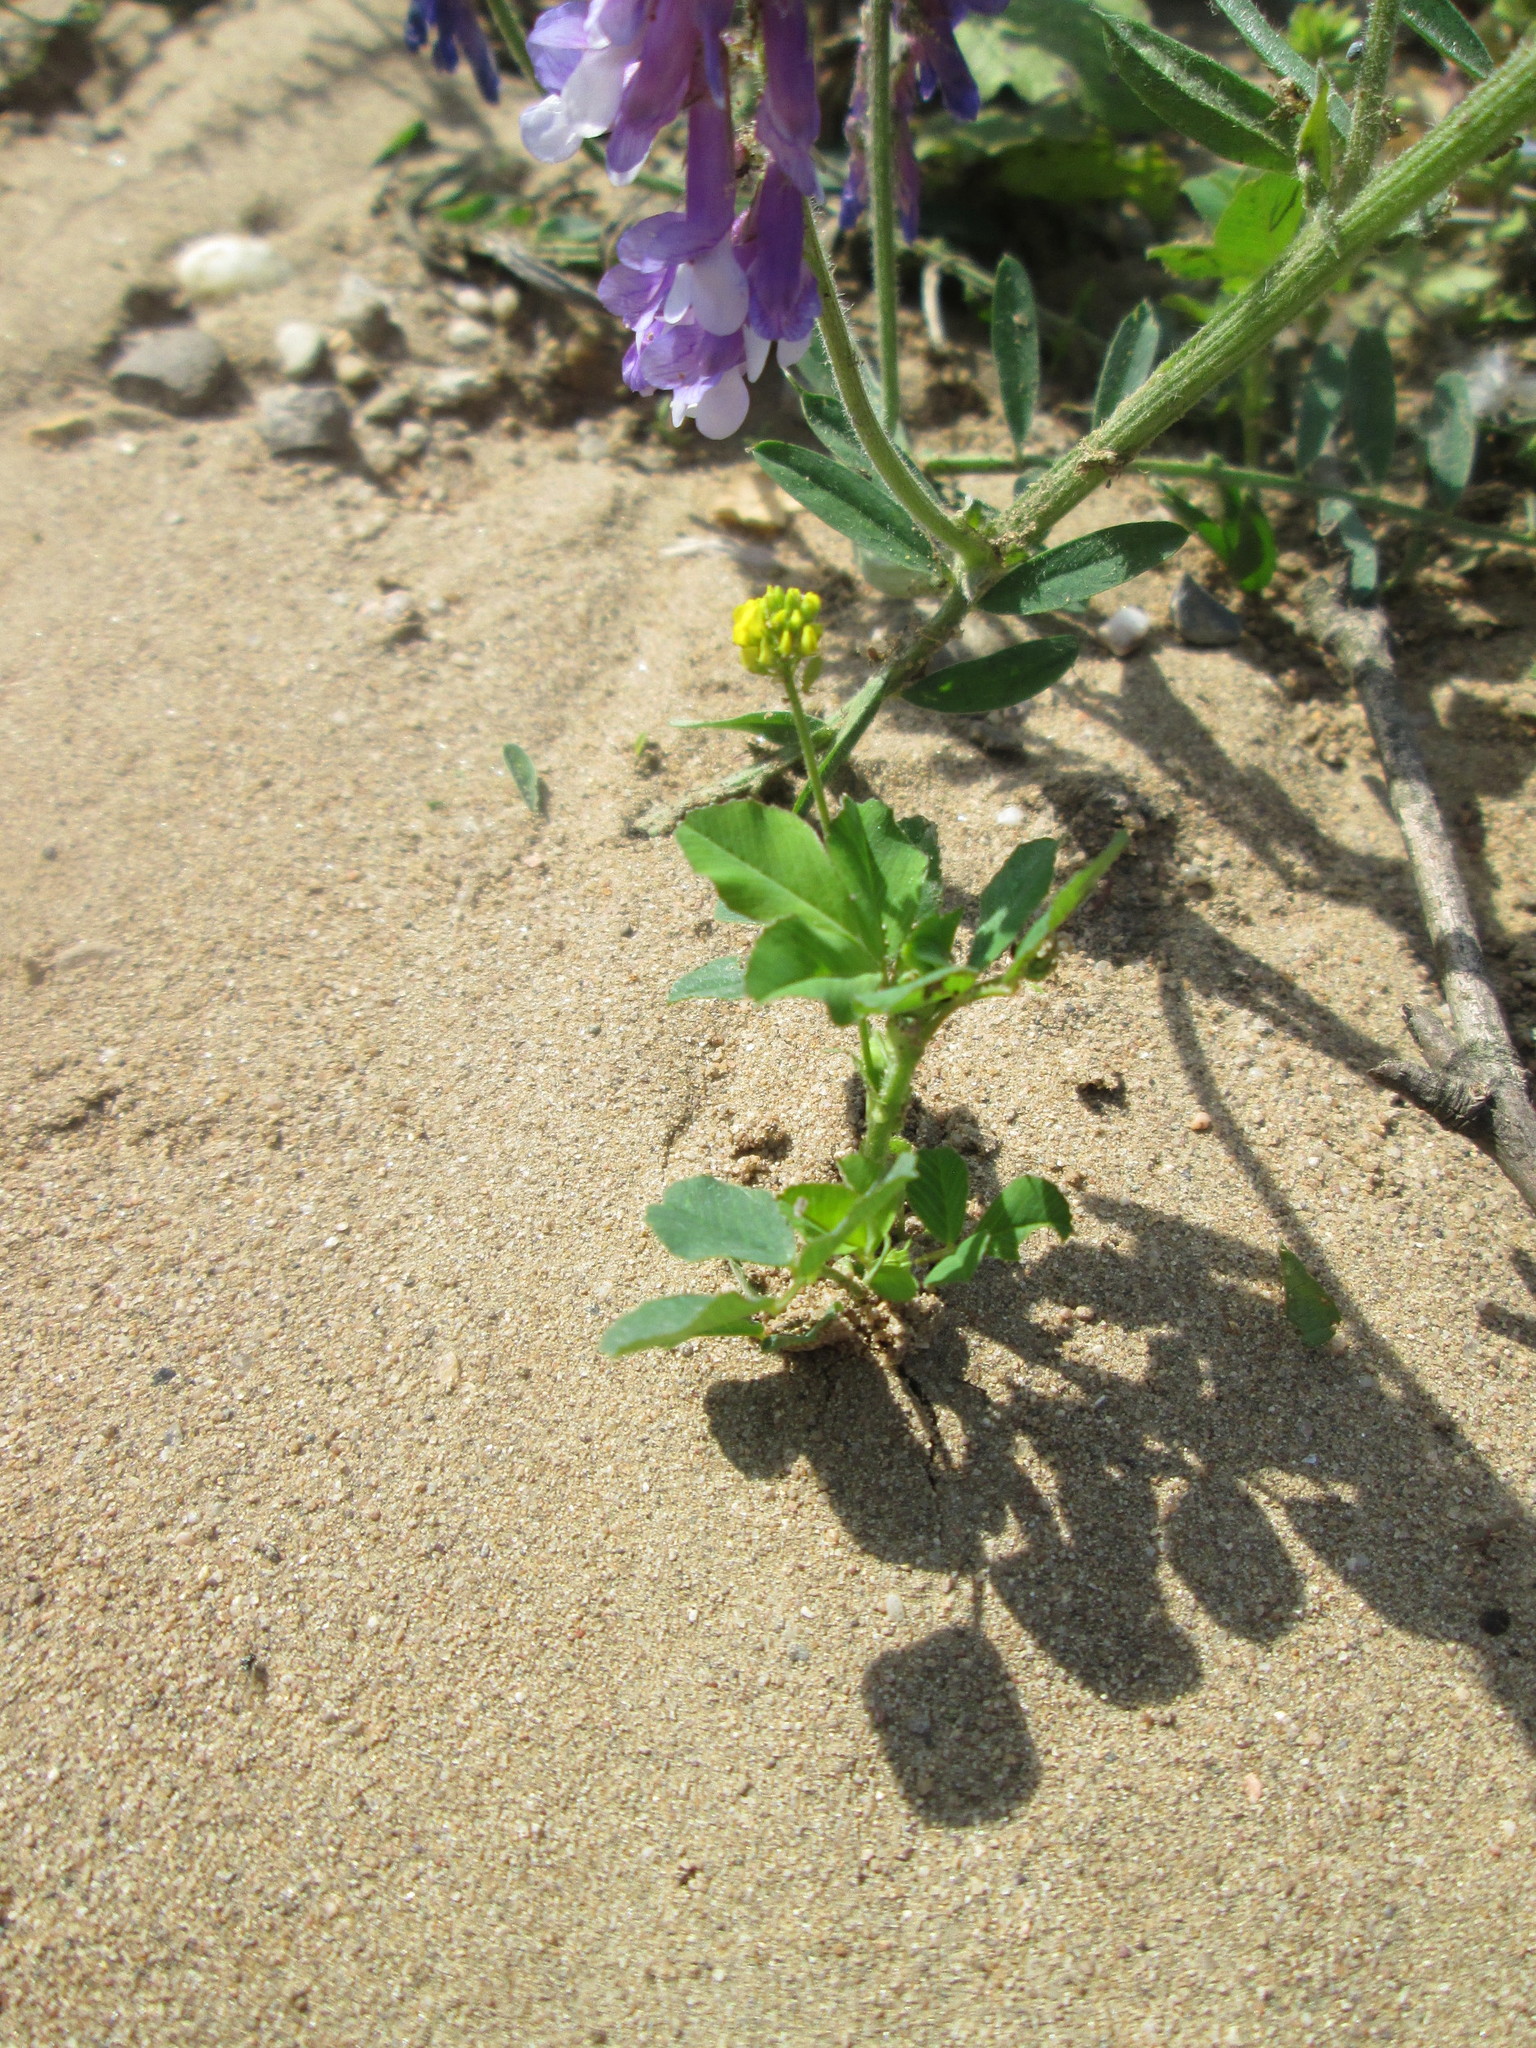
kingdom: Plantae
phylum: Tracheophyta
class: Magnoliopsida
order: Fabales
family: Fabaceae
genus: Medicago
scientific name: Medicago lupulina
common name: Black medick
